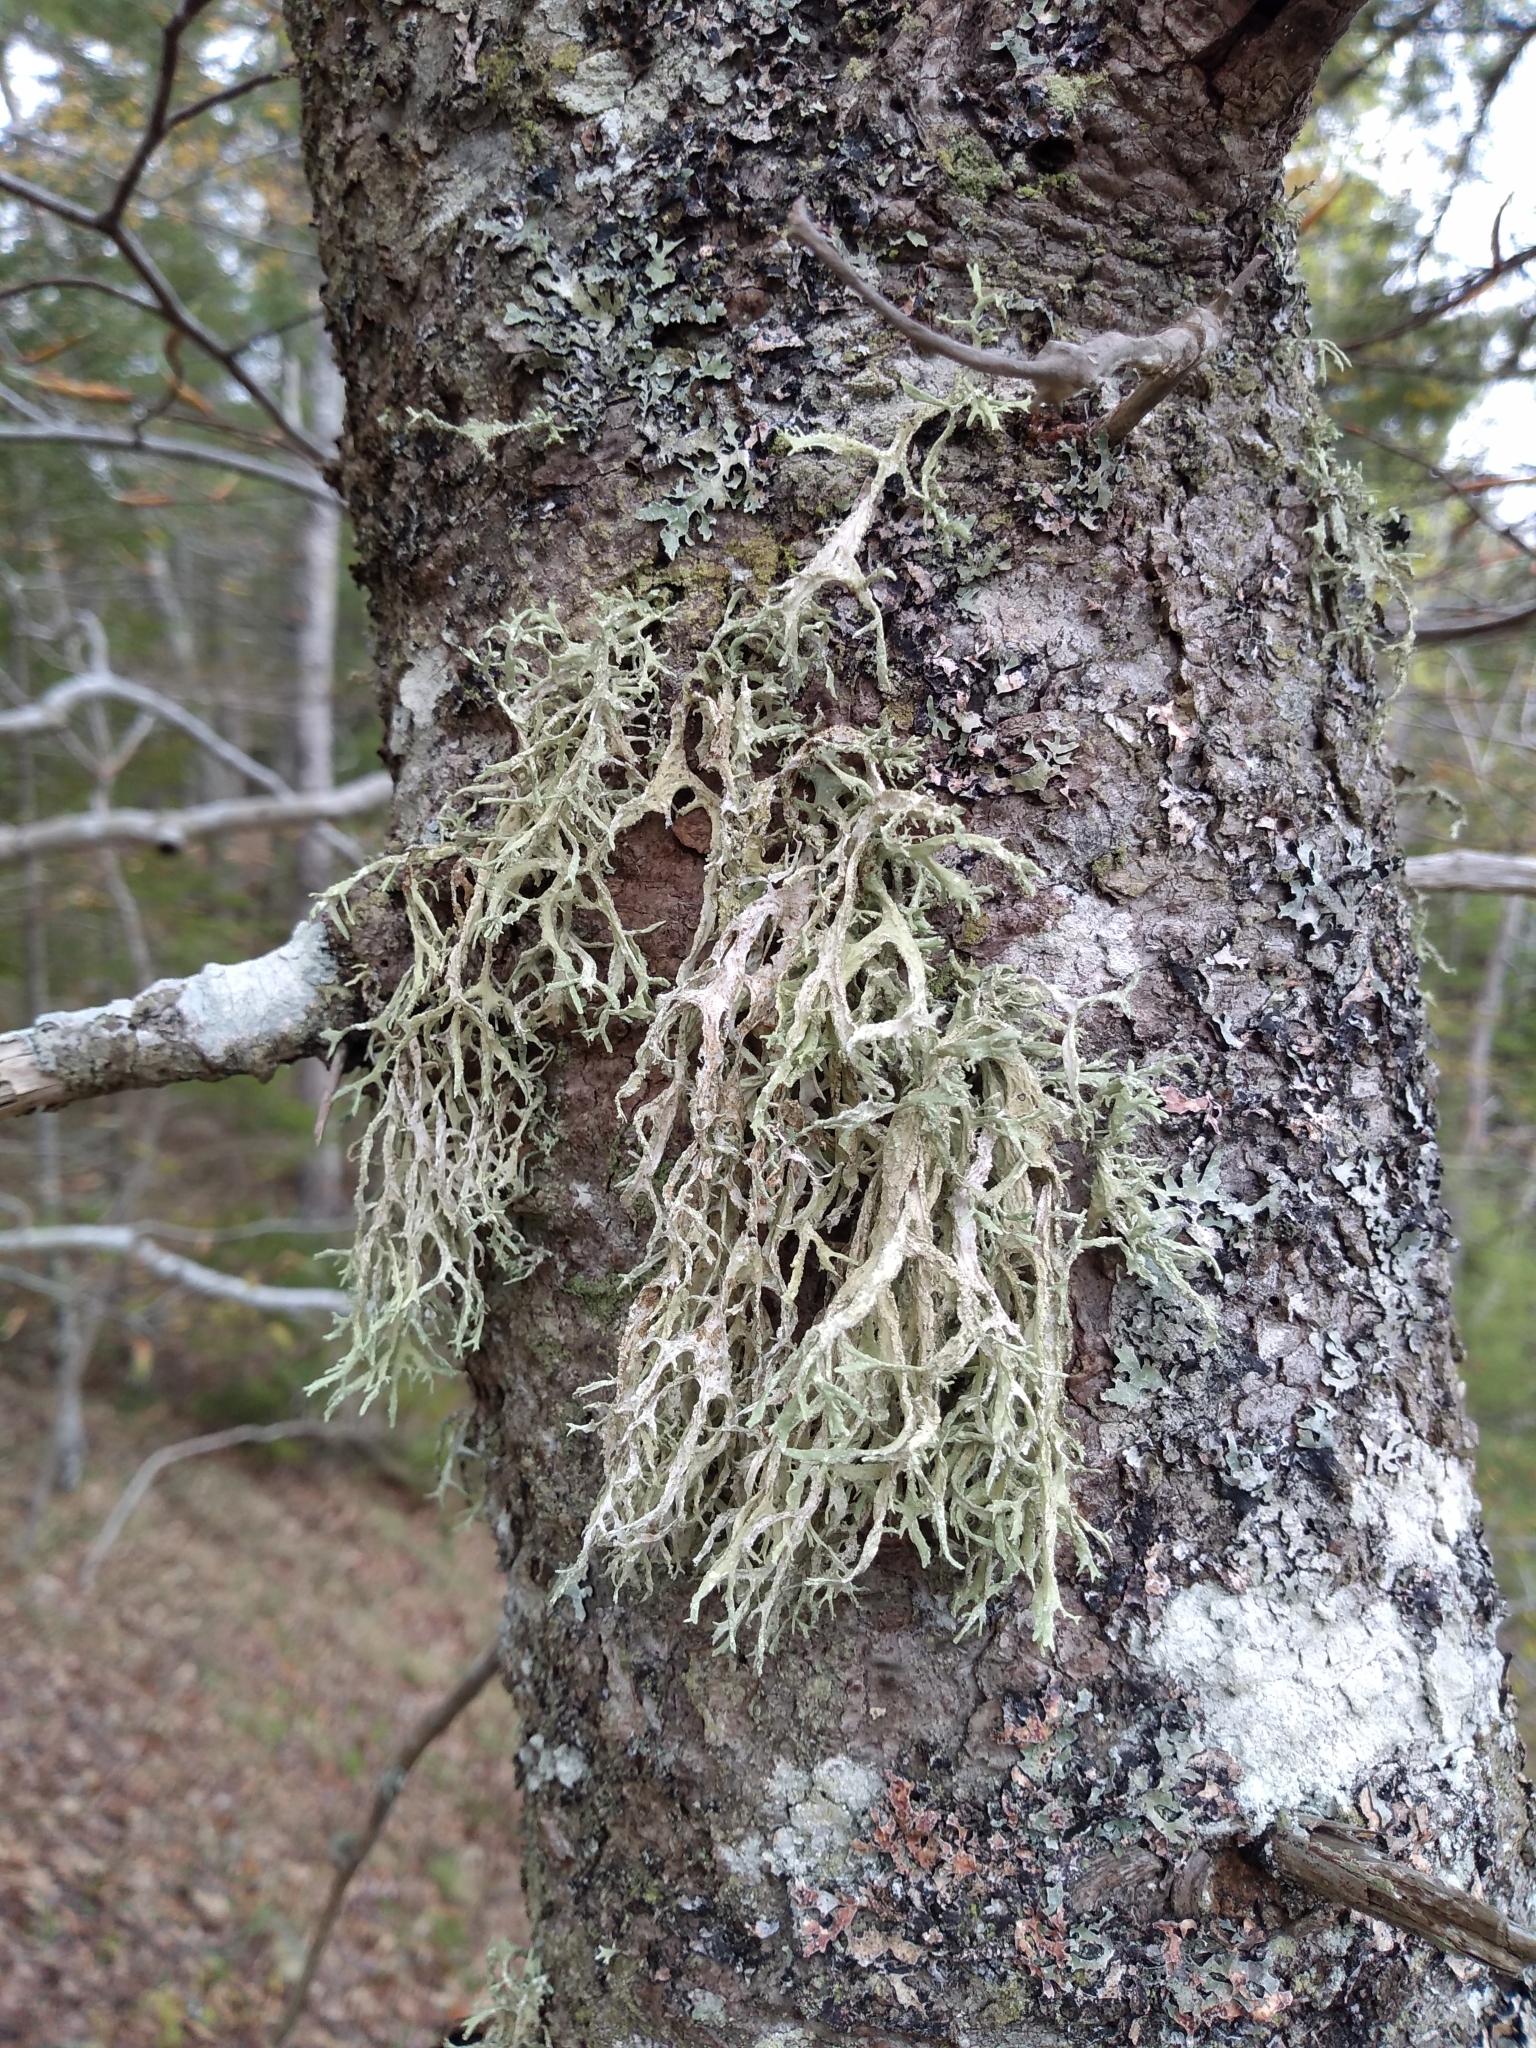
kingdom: Fungi
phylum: Ascomycota
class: Lecanoromycetes
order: Lecanorales
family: Parmeliaceae
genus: Evernia
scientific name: Evernia prunastri
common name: Oak moss
